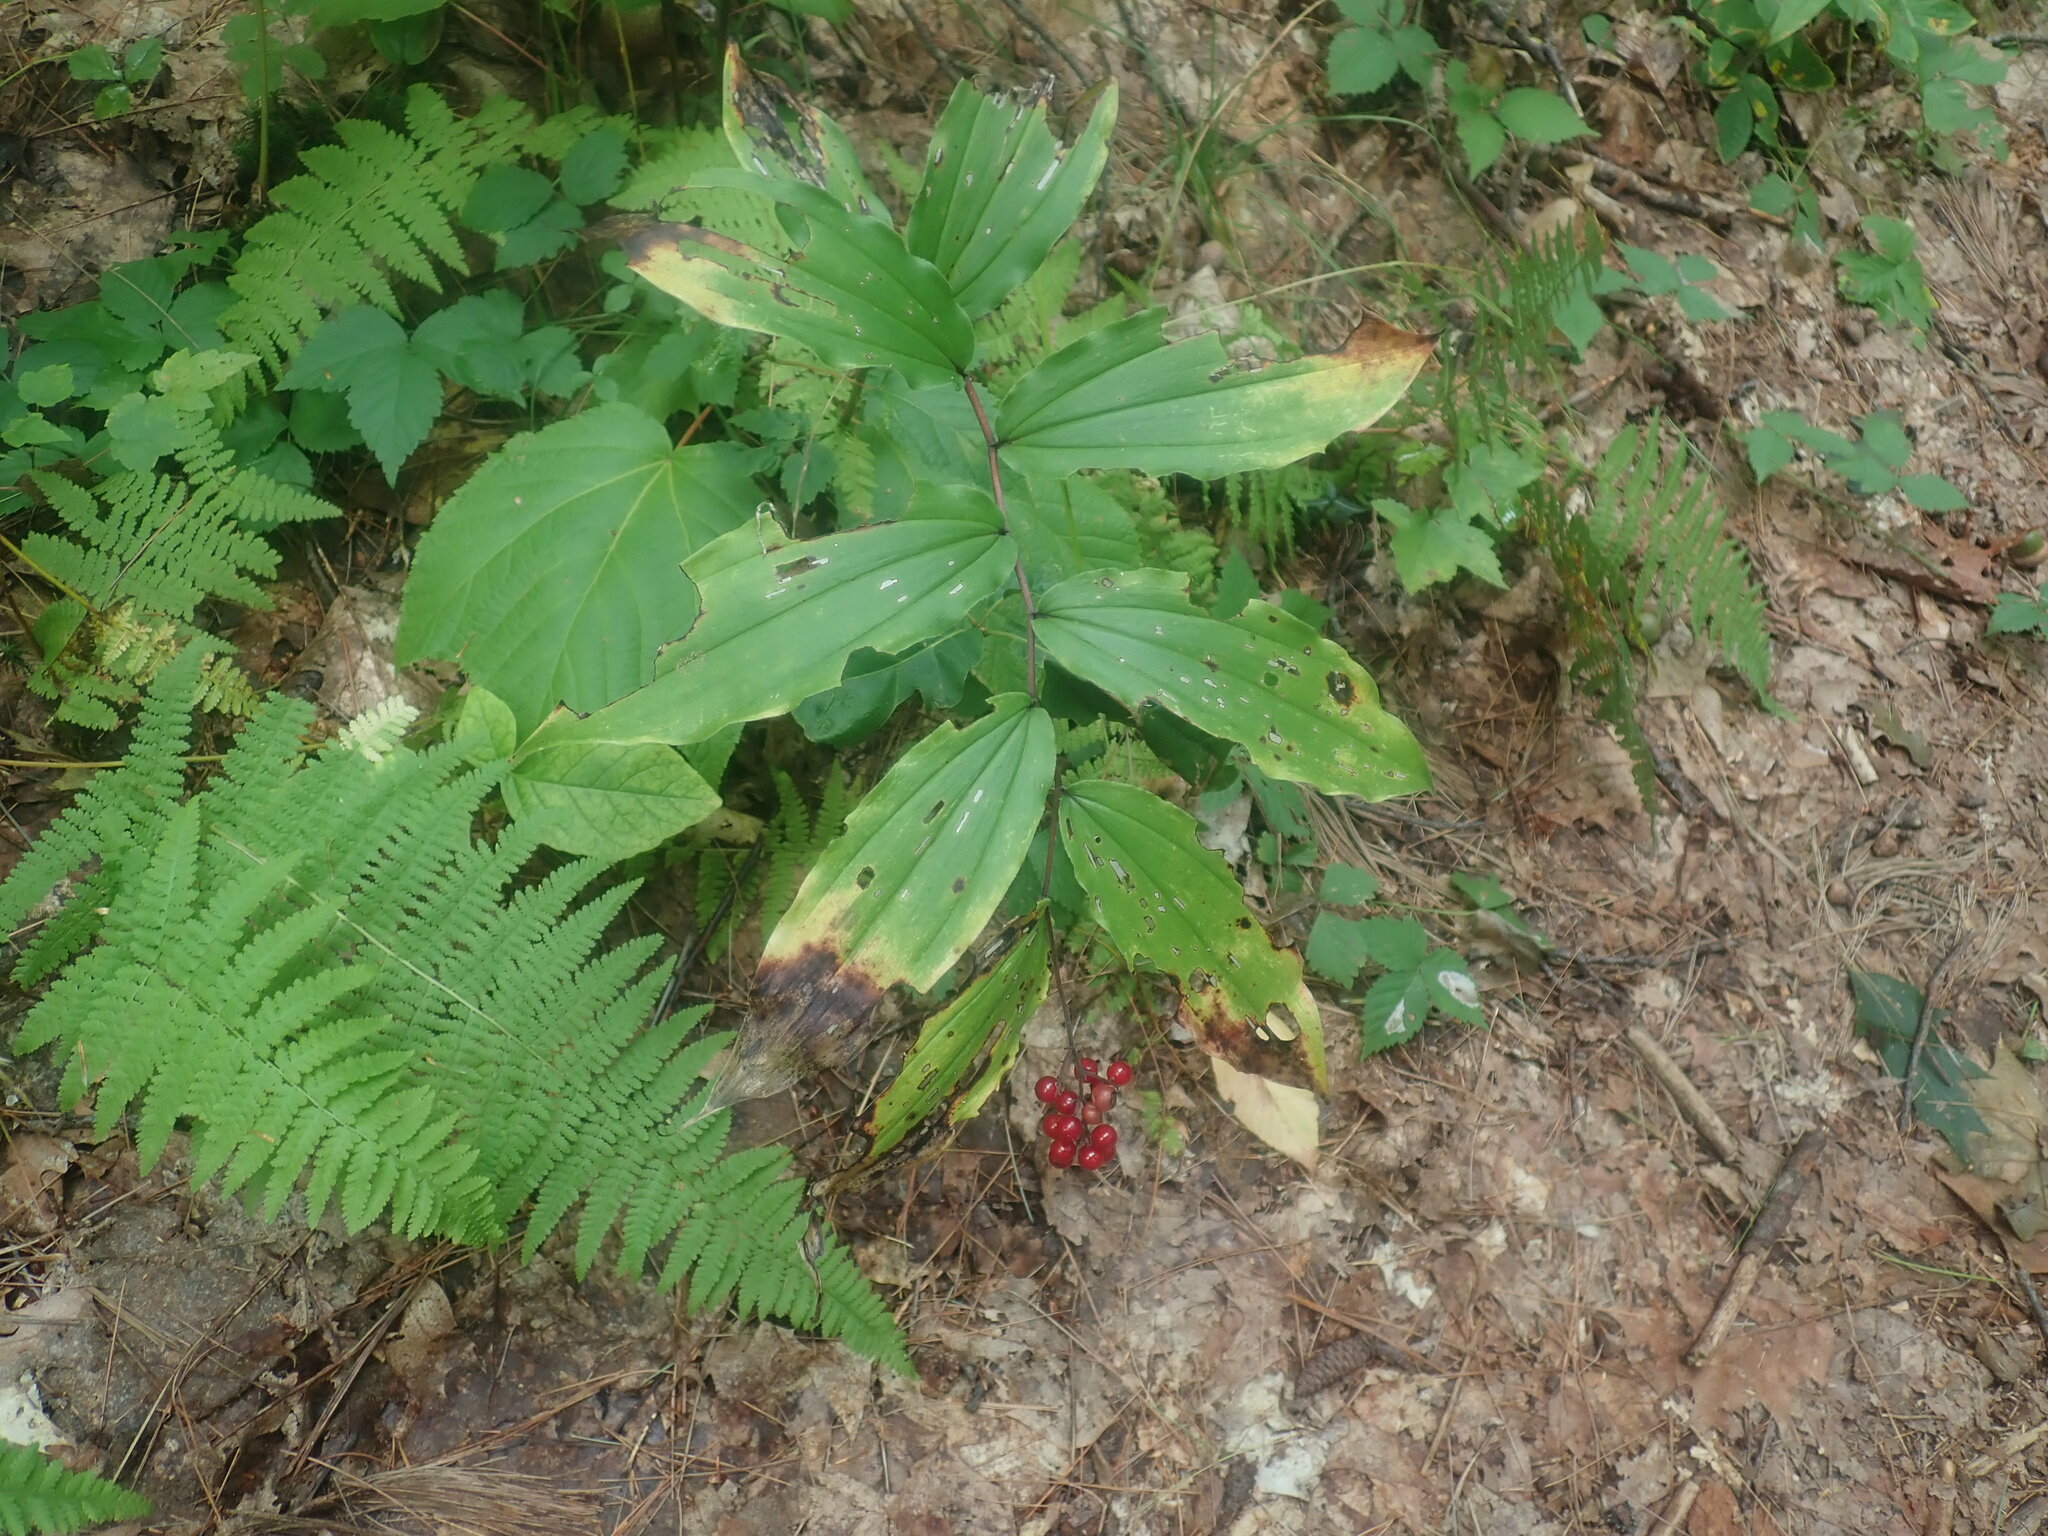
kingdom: Plantae
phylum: Tracheophyta
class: Liliopsida
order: Asparagales
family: Asparagaceae
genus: Maianthemum
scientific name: Maianthemum racemosum
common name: False spikenard
